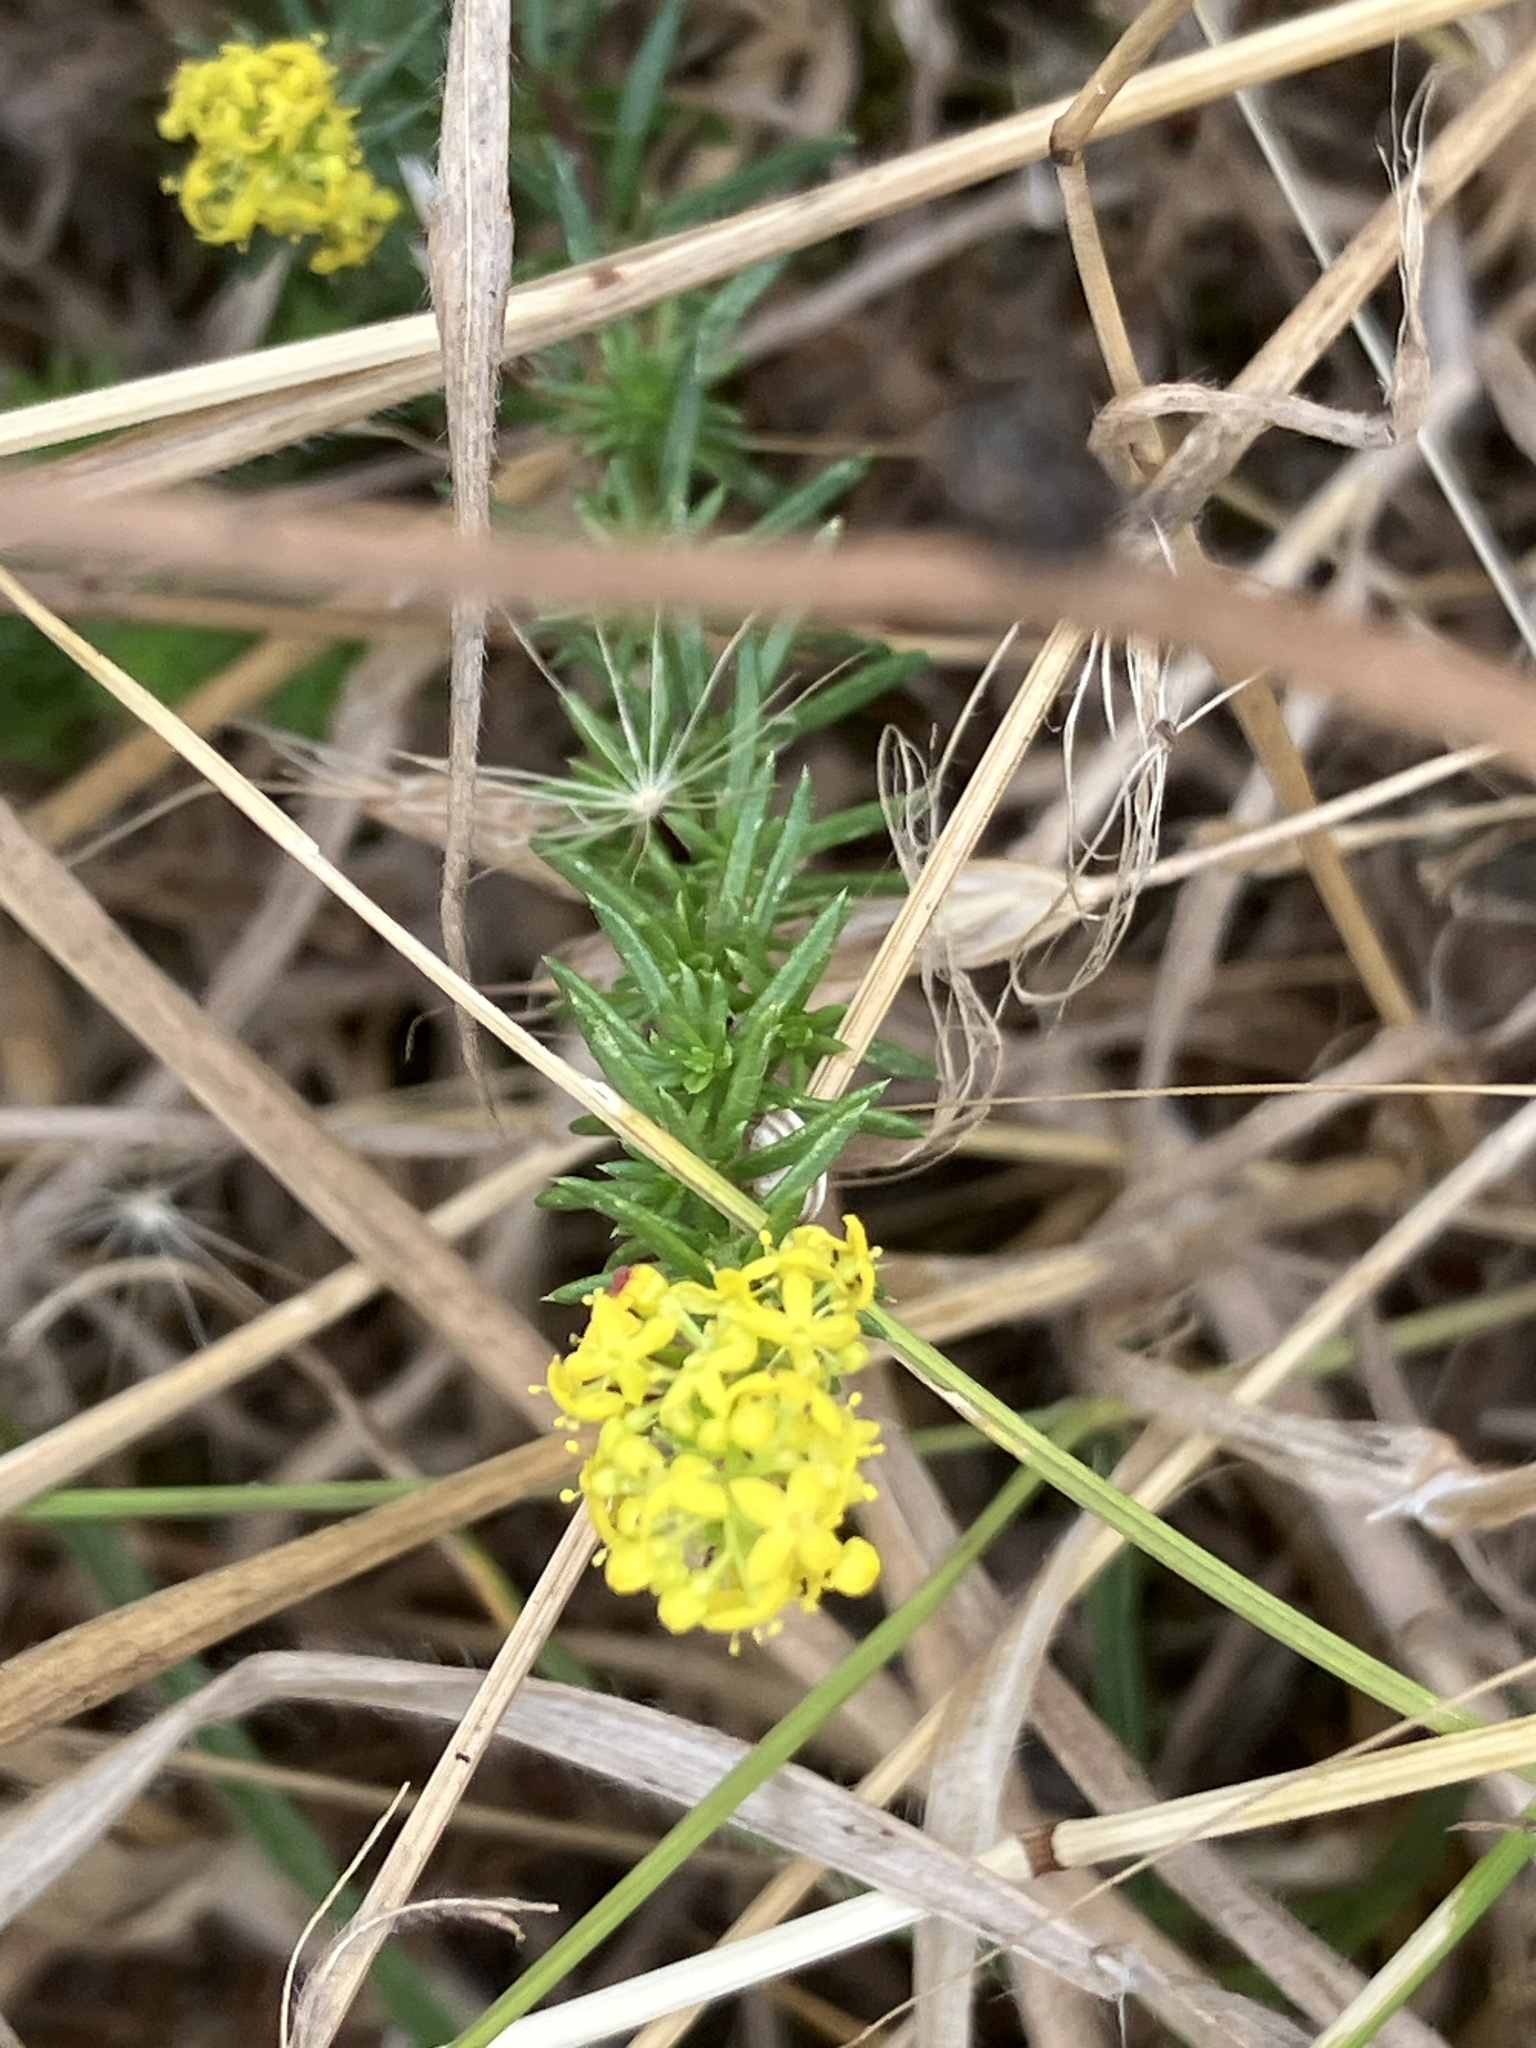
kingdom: Plantae
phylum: Tracheophyta
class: Magnoliopsida
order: Gentianales
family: Rubiaceae
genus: Galium
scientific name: Galium verum
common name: Lady's bedstraw
